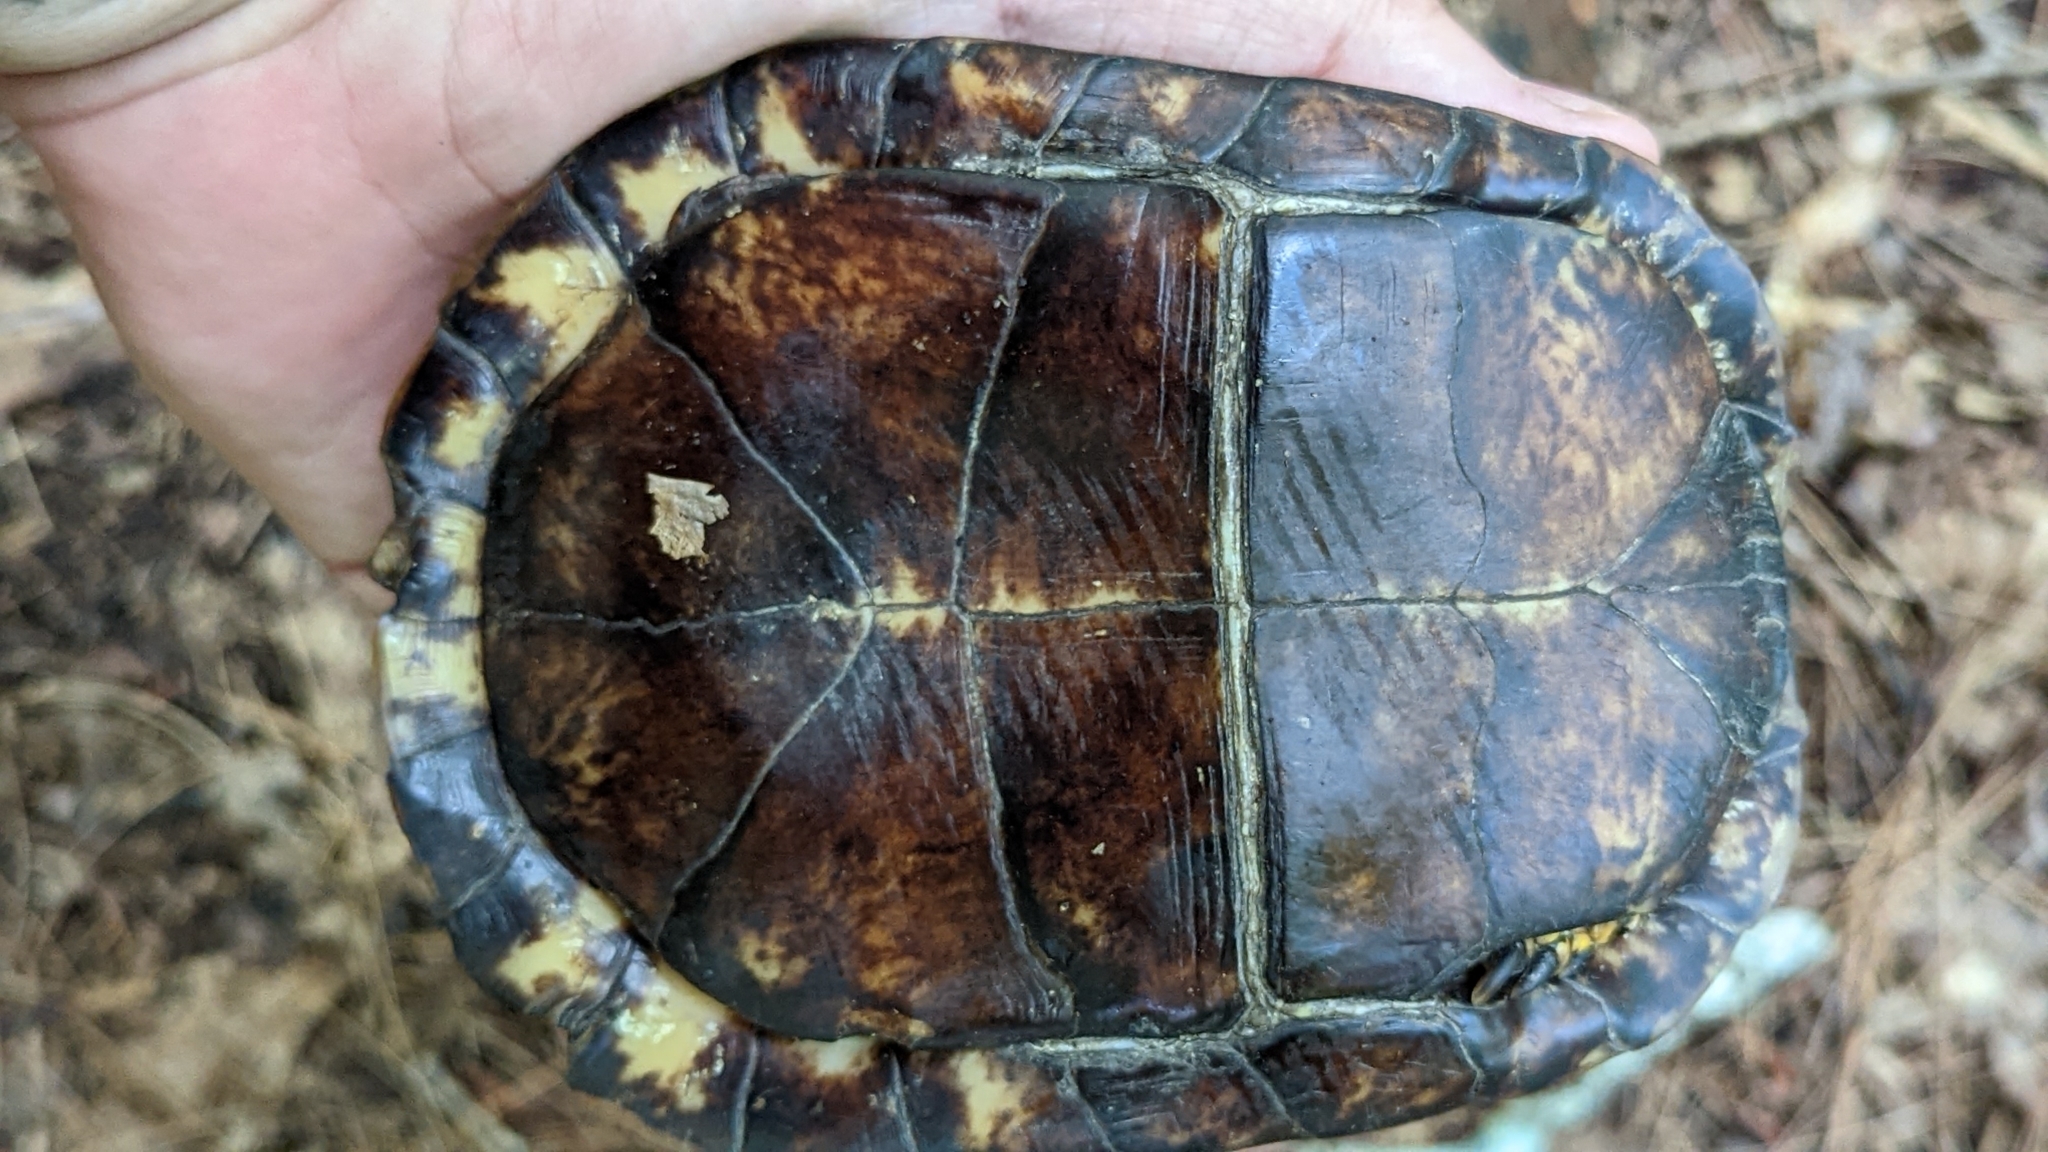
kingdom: Animalia
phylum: Chordata
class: Testudines
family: Emydidae
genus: Terrapene
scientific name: Terrapene carolina
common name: Common box turtle
